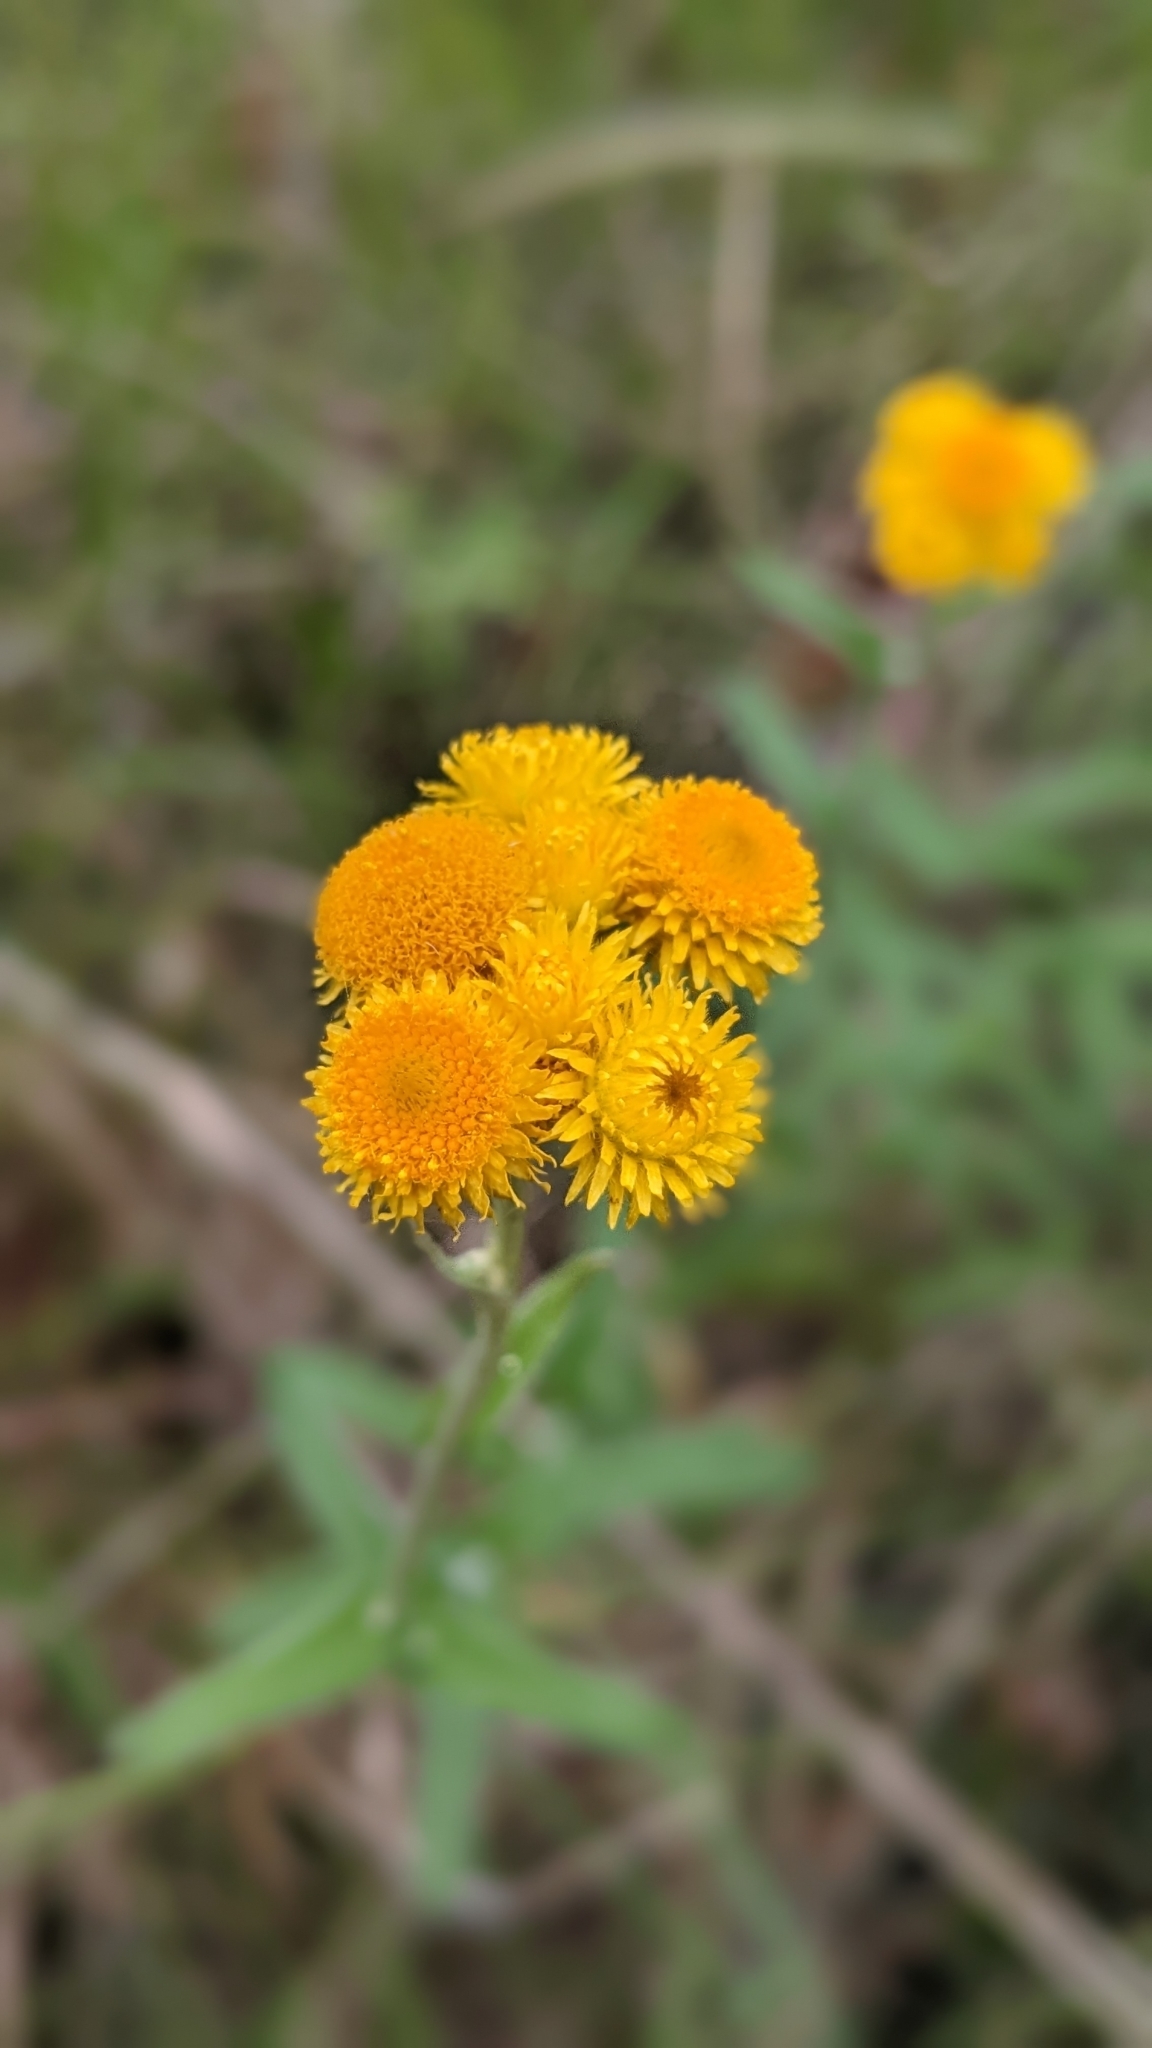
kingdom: Plantae
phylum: Tracheophyta
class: Magnoliopsida
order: Asterales
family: Asteraceae
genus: Chrysocephalum
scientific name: Chrysocephalum apiculatum
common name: Common everlasting
